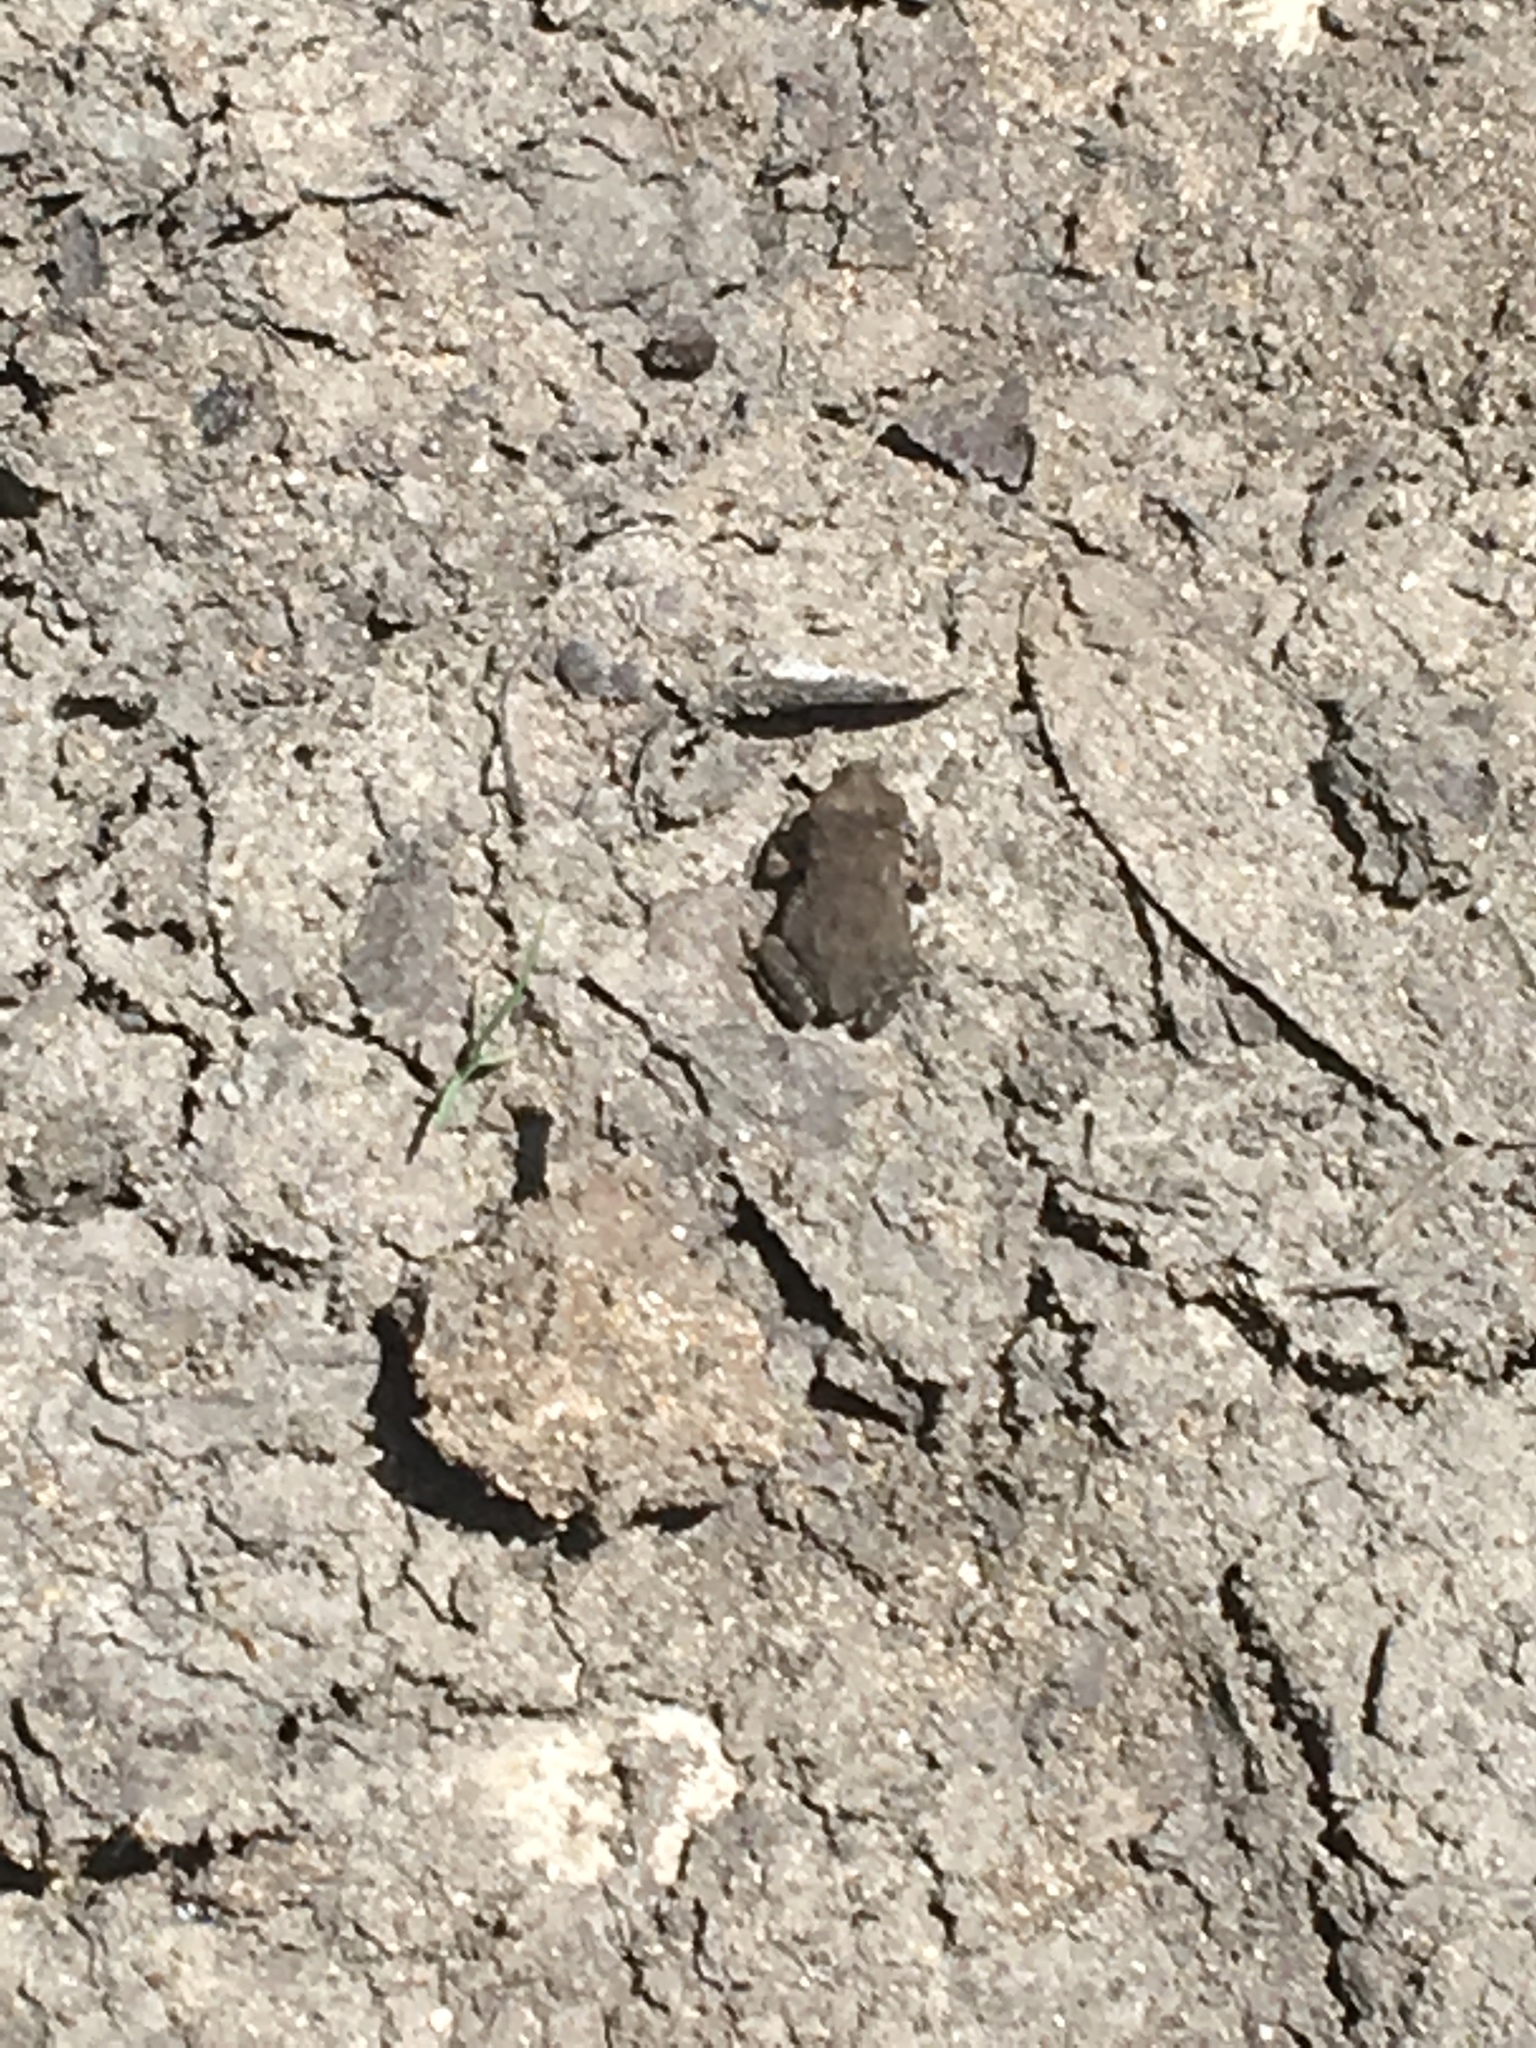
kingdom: Animalia
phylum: Chordata
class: Amphibia
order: Anura
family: Bufonidae
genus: Incilius
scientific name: Incilius nebulifer
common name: Gulf coast toad
